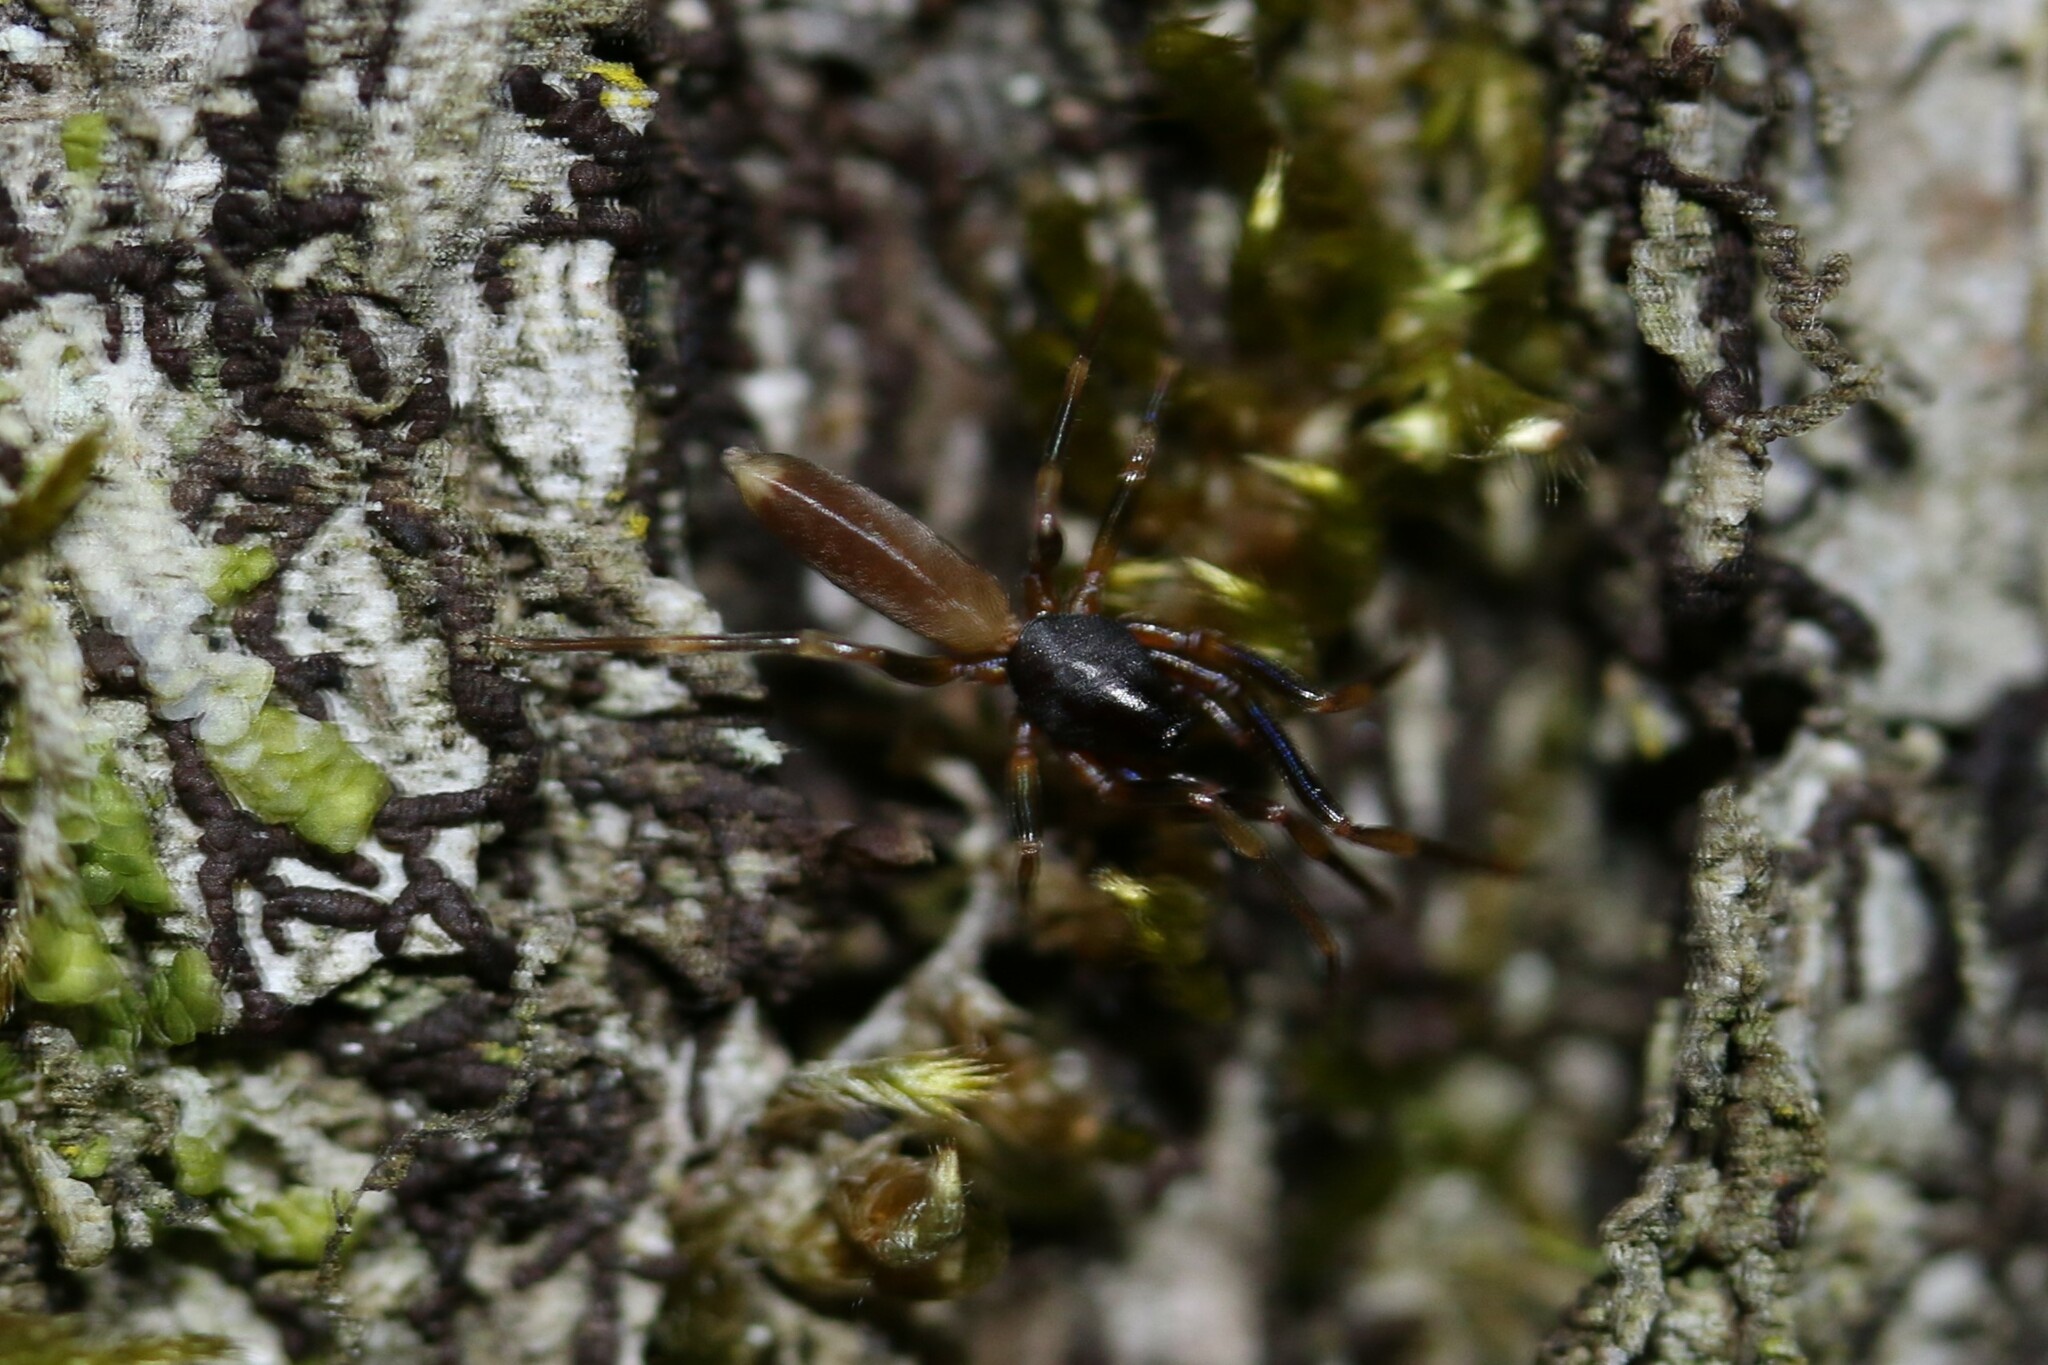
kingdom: Animalia
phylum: Arthropoda
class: Arachnida
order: Araneae
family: Dysderidae
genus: Harpactea
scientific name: Harpactea hombergi
